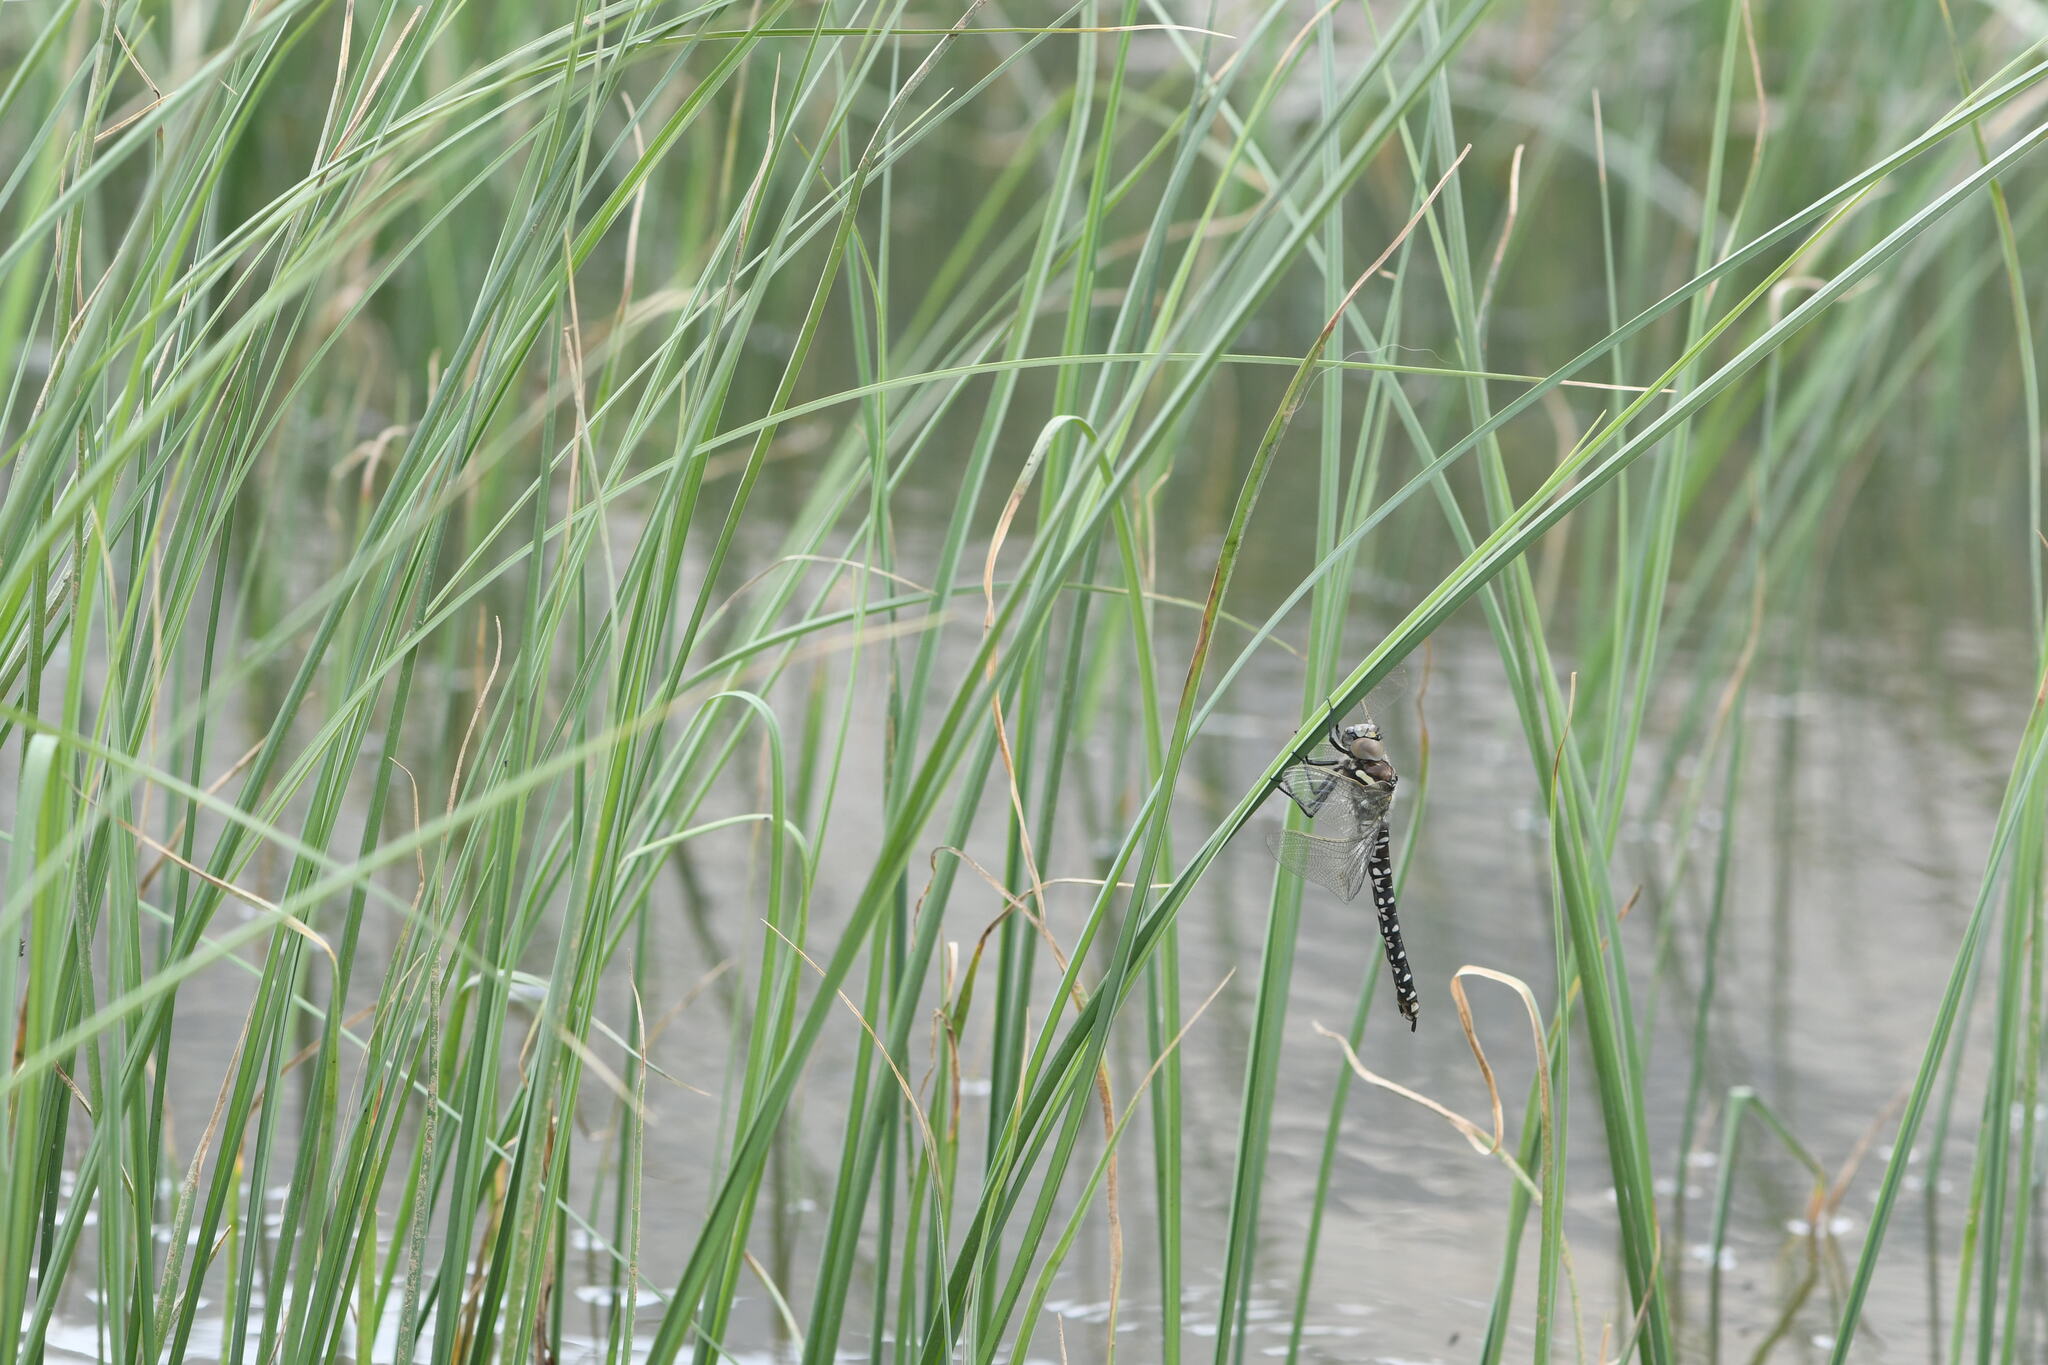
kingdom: Animalia
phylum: Arthropoda
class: Insecta
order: Odonata
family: Aeshnidae
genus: Aeshna
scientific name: Aeshna juncea
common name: Moorland hawker
